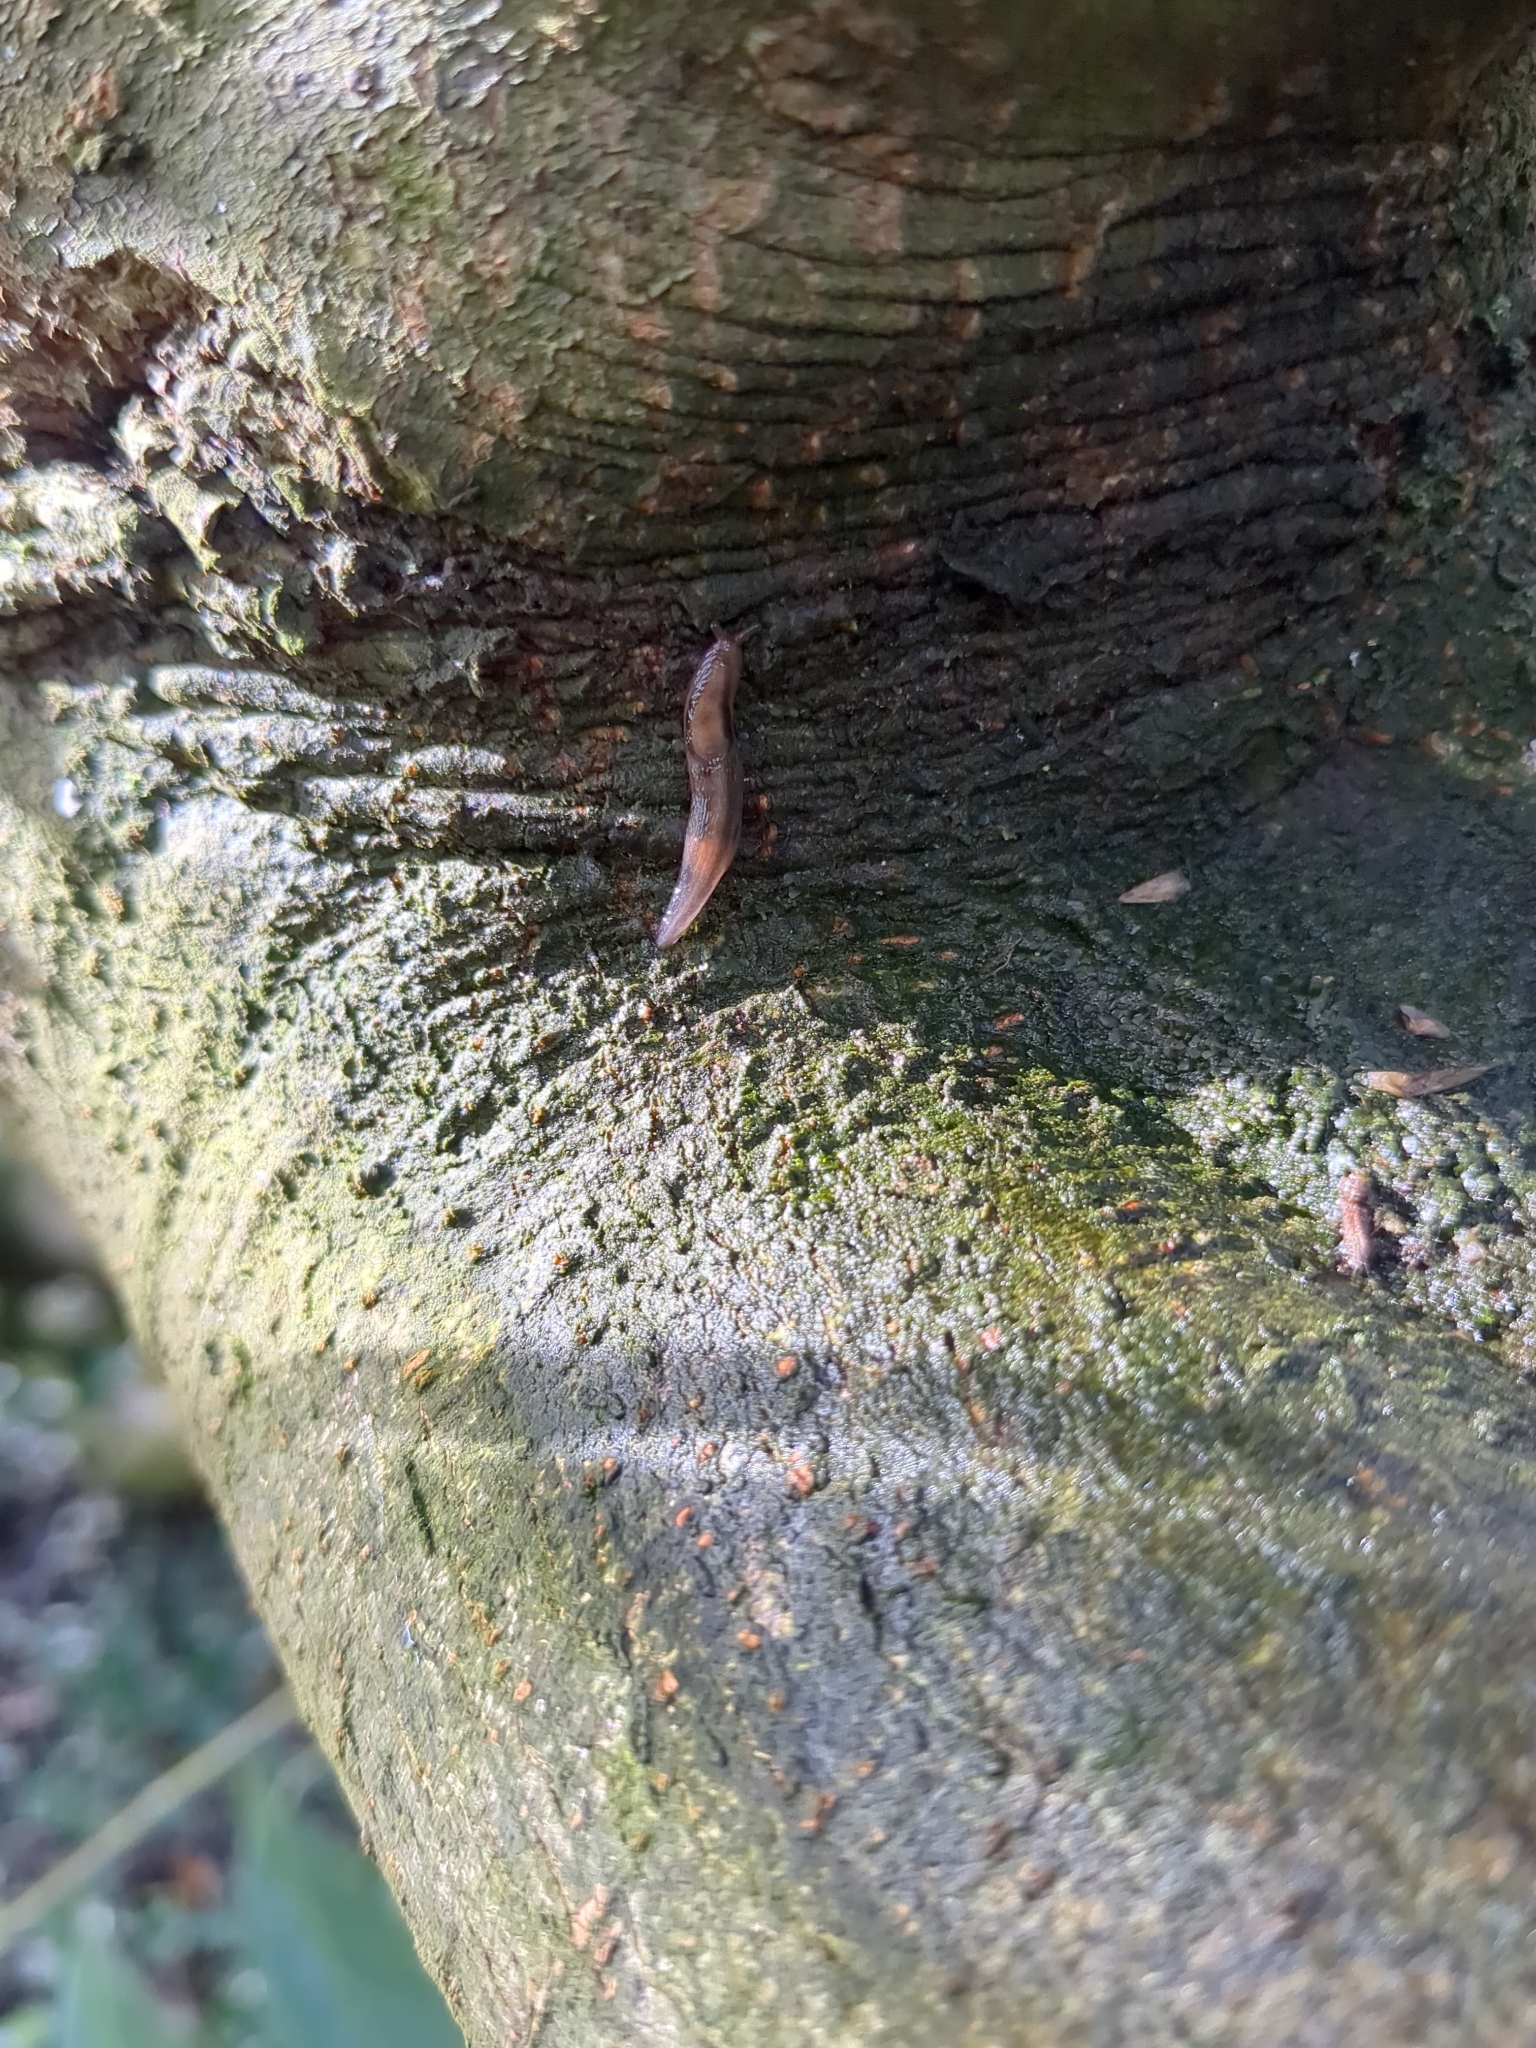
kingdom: Animalia
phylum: Mollusca
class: Gastropoda
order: Stylommatophora
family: Limacidae
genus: Lehmannia
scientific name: Lehmannia marginata
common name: Tree slug
